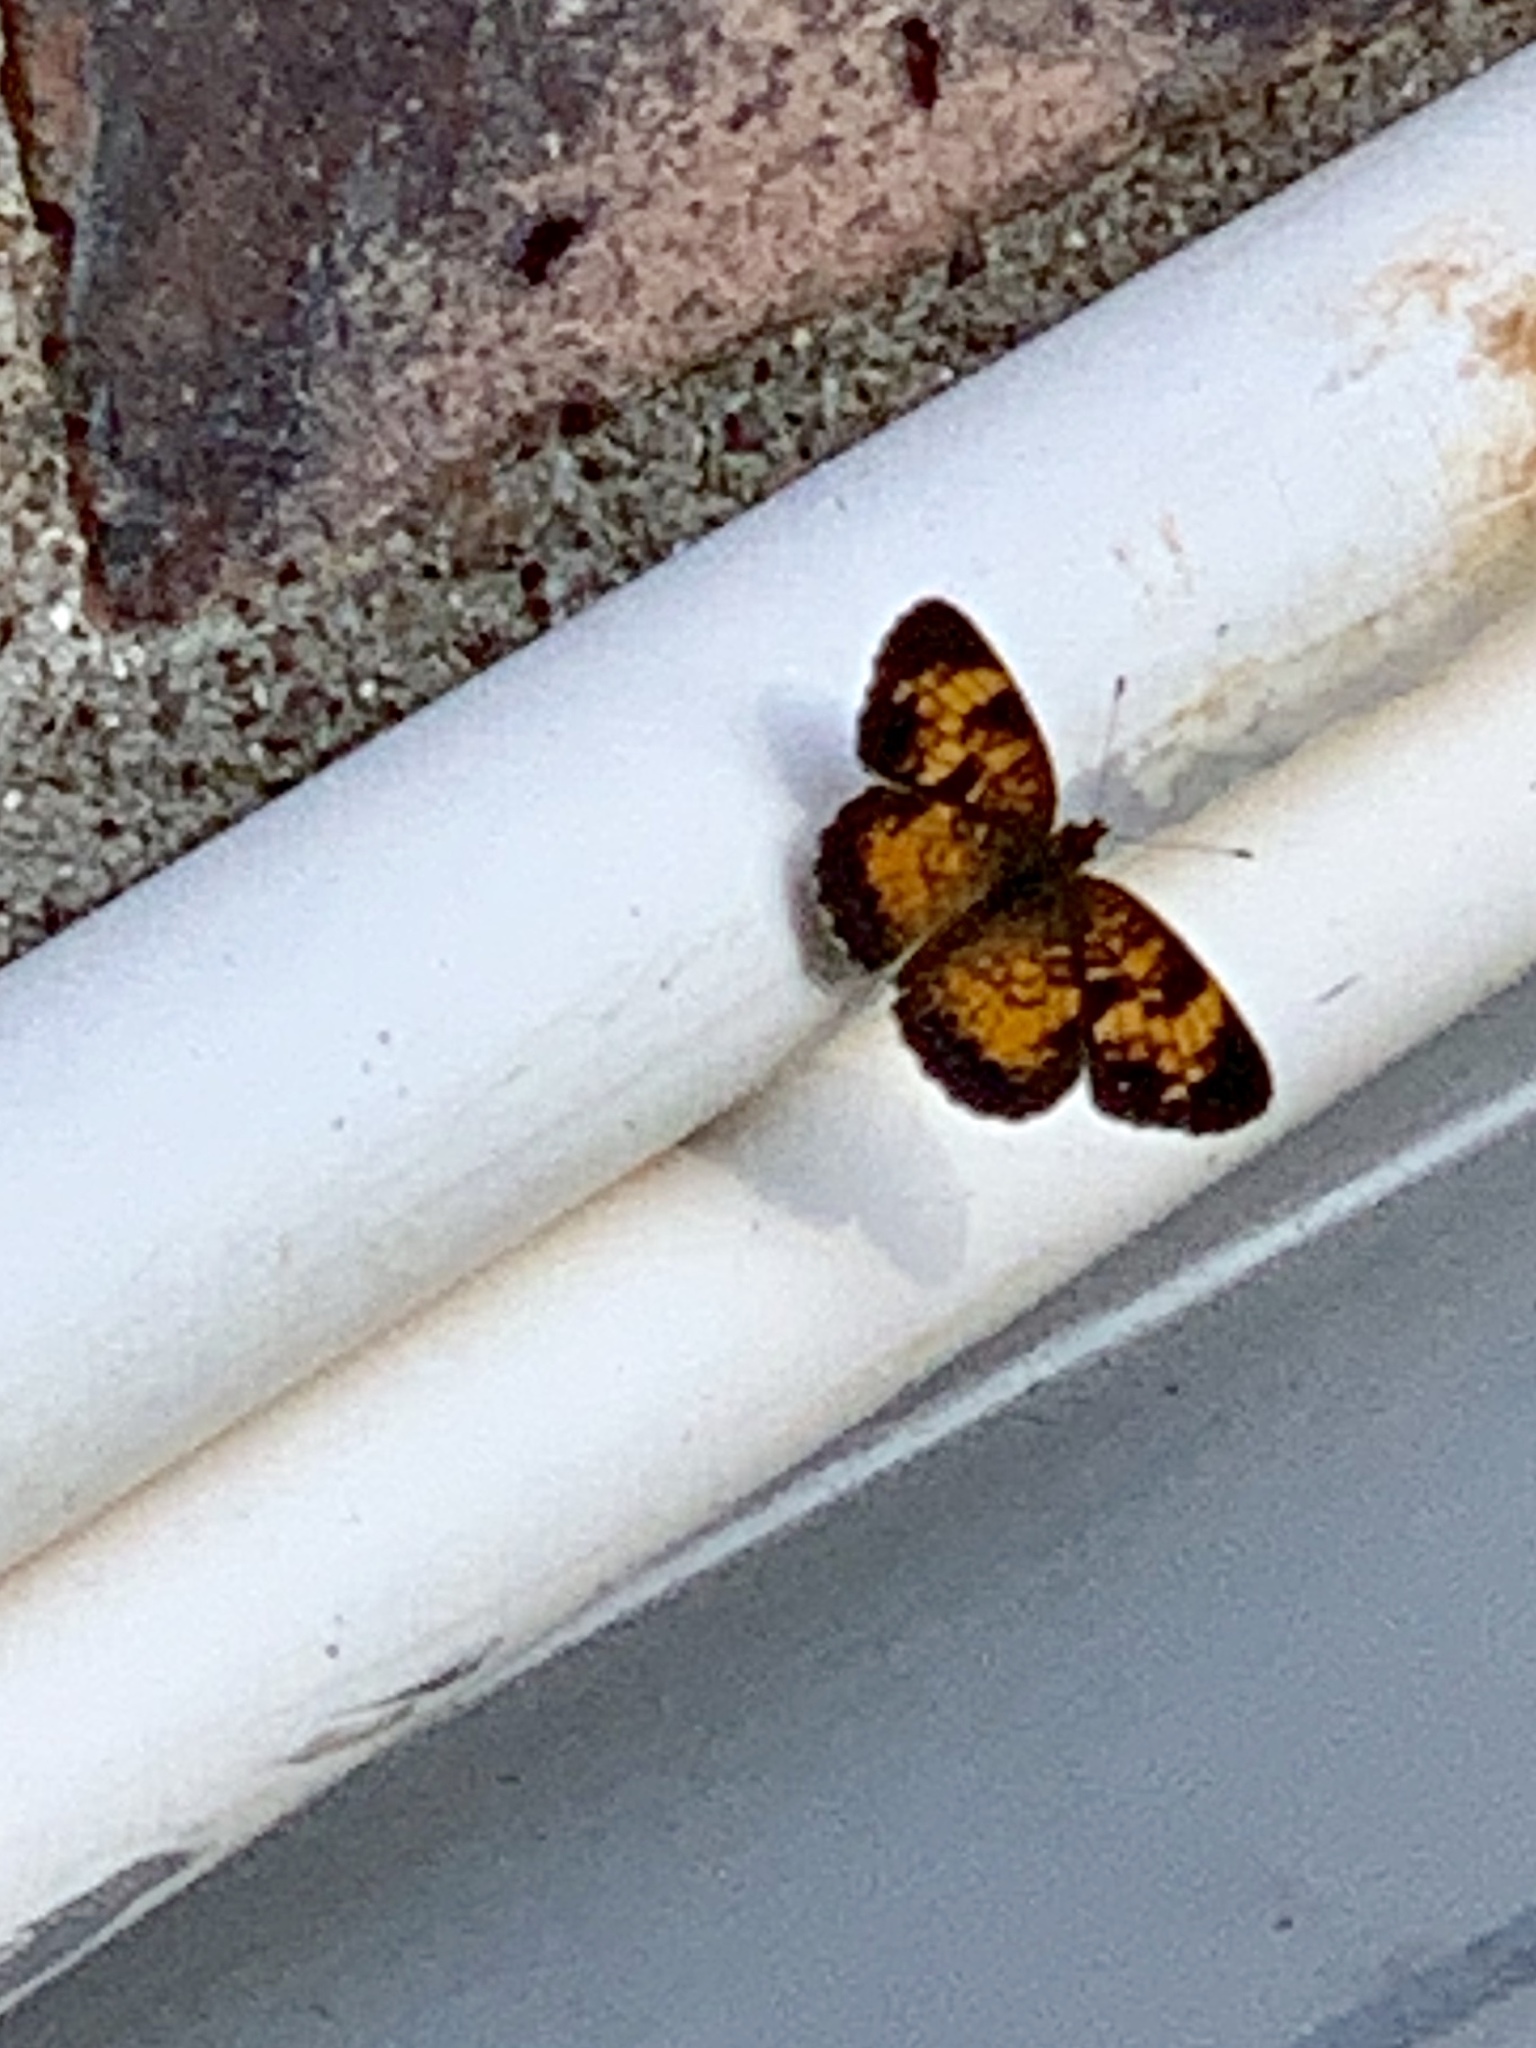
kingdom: Animalia
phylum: Arthropoda
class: Insecta
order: Lepidoptera
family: Nymphalidae
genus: Phyciodes
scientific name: Phyciodes tharos
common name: Pearl crescent
